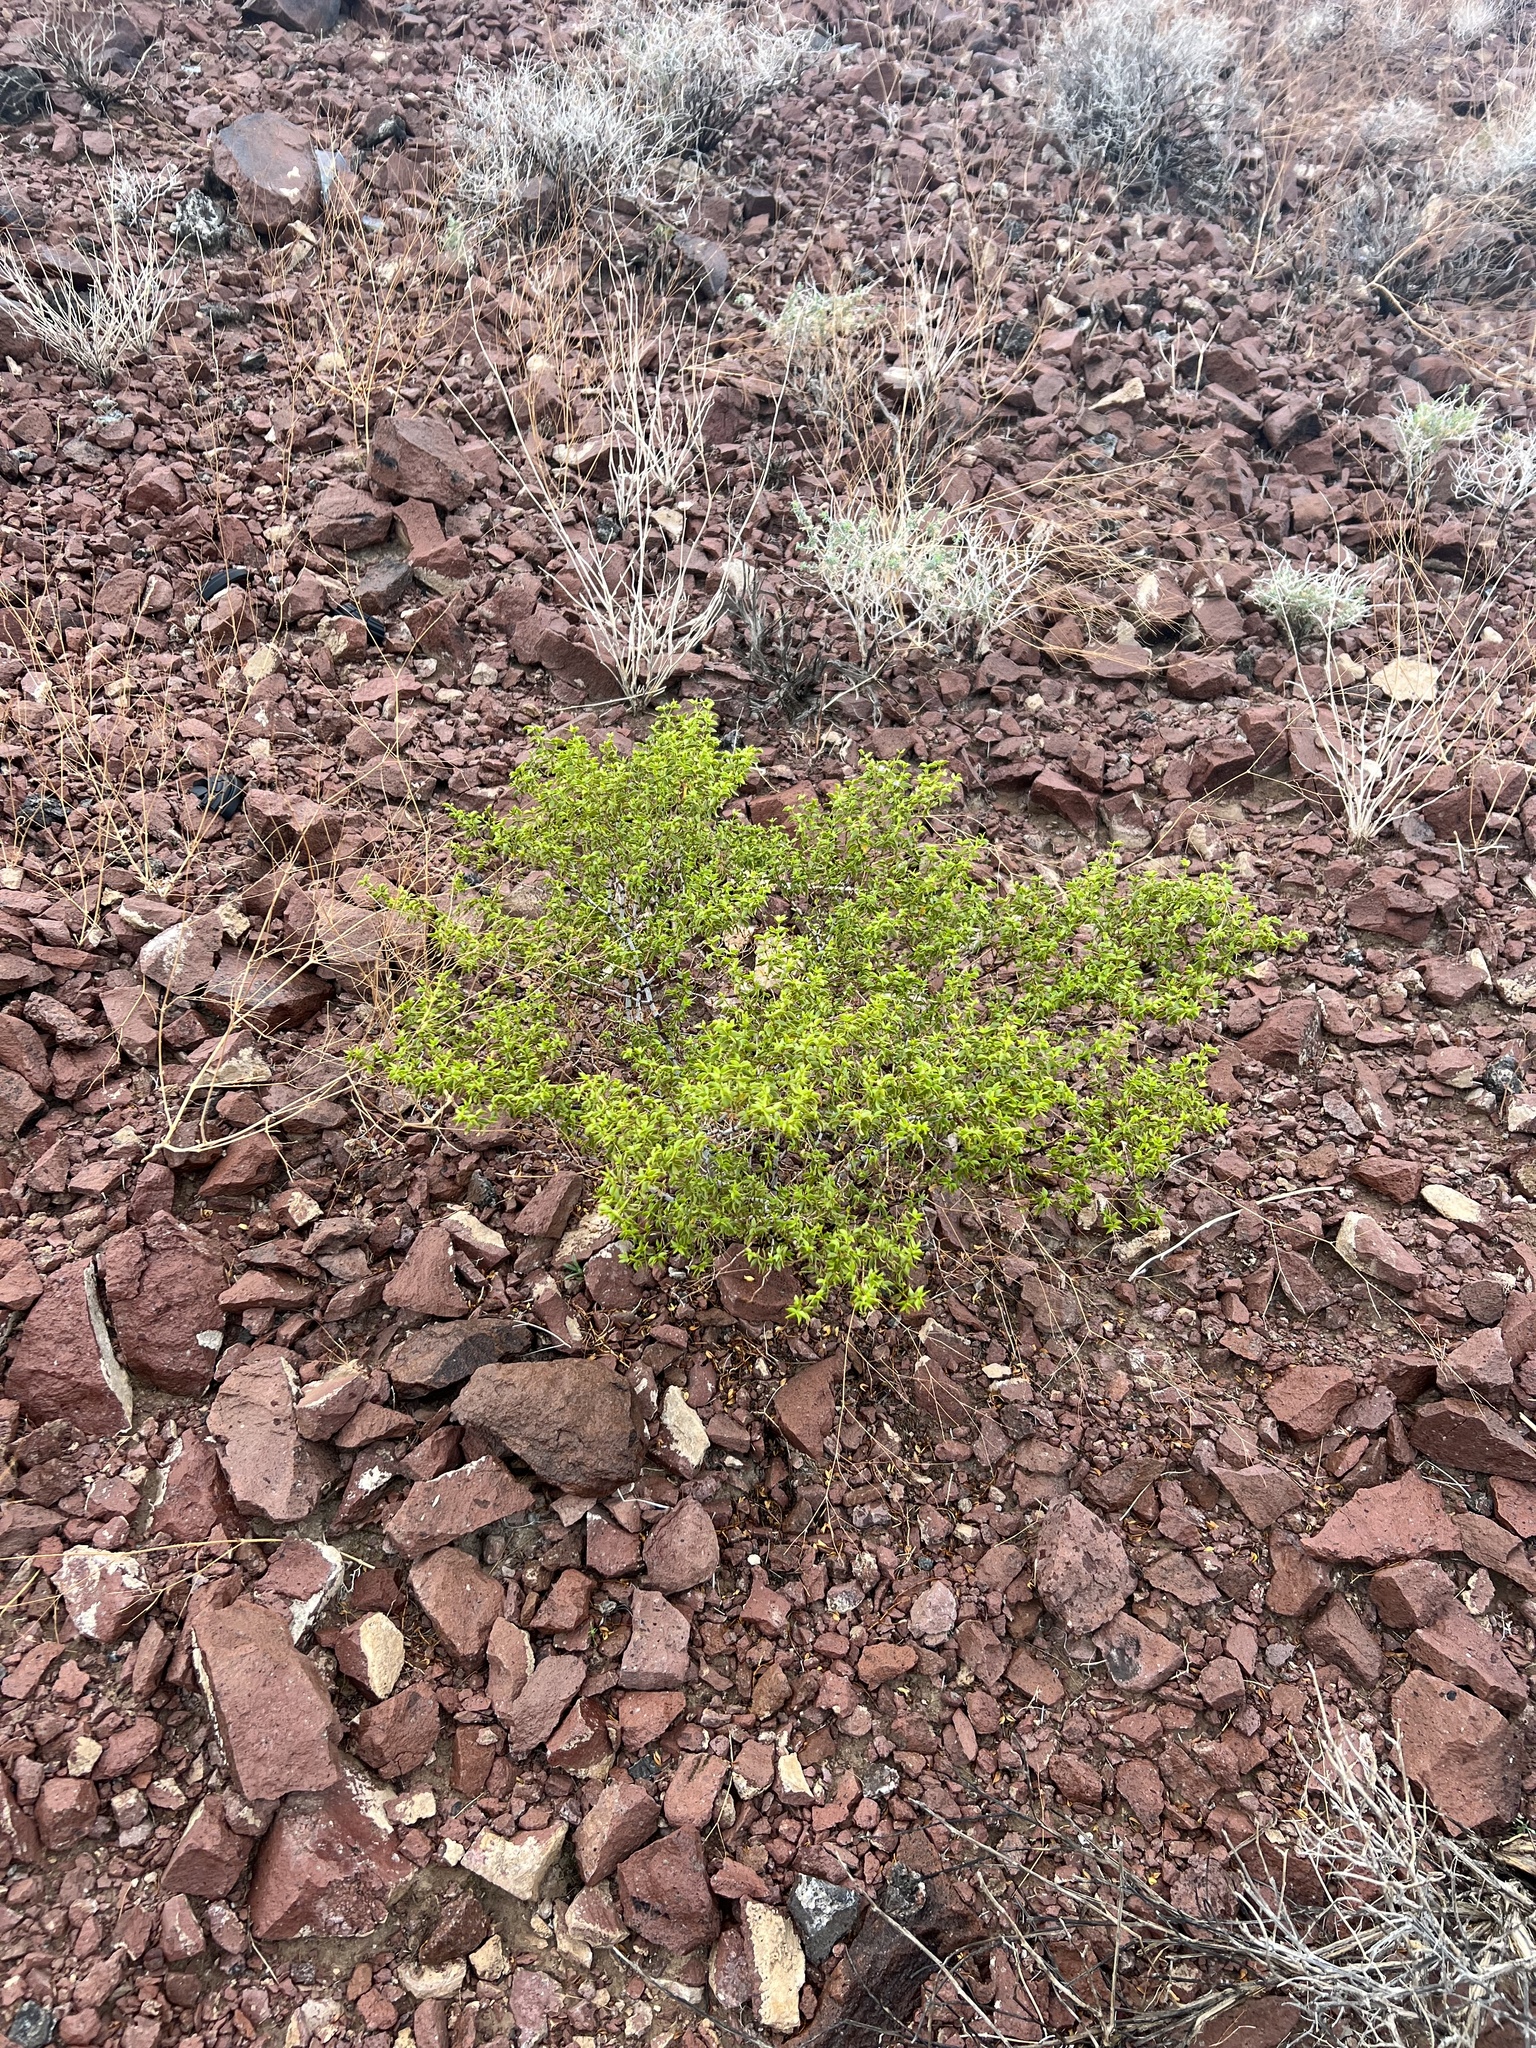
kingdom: Plantae
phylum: Tracheophyta
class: Magnoliopsida
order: Zygophyllales
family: Zygophyllaceae
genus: Larrea
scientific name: Larrea tridentata
